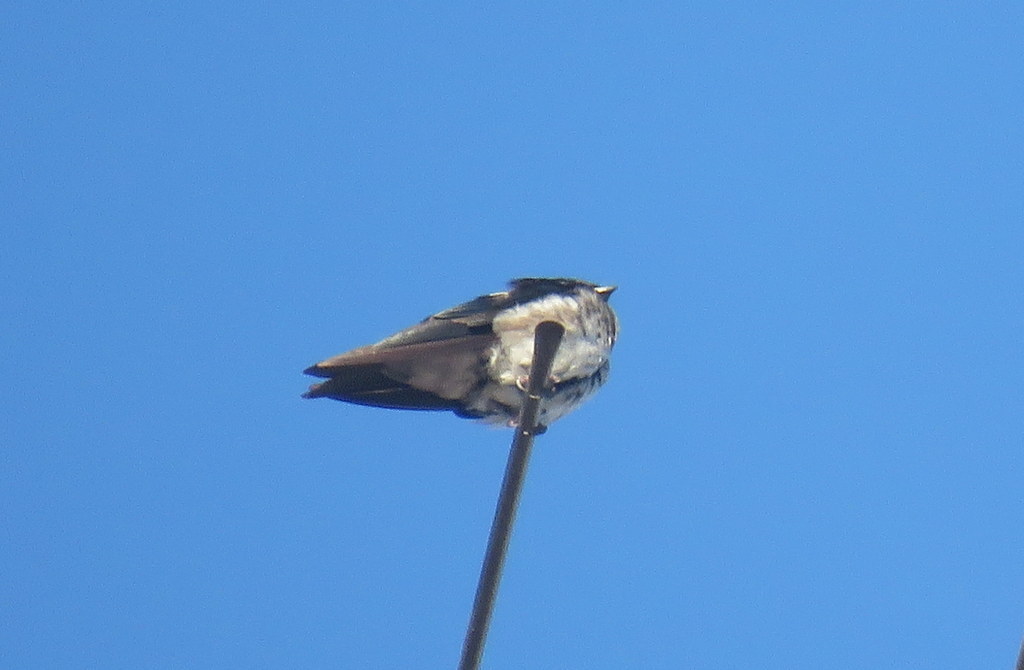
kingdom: Animalia
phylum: Chordata
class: Aves
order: Passeriformes
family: Hirundinidae
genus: Progne
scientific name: Progne chalybea
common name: Grey-breasted martin
